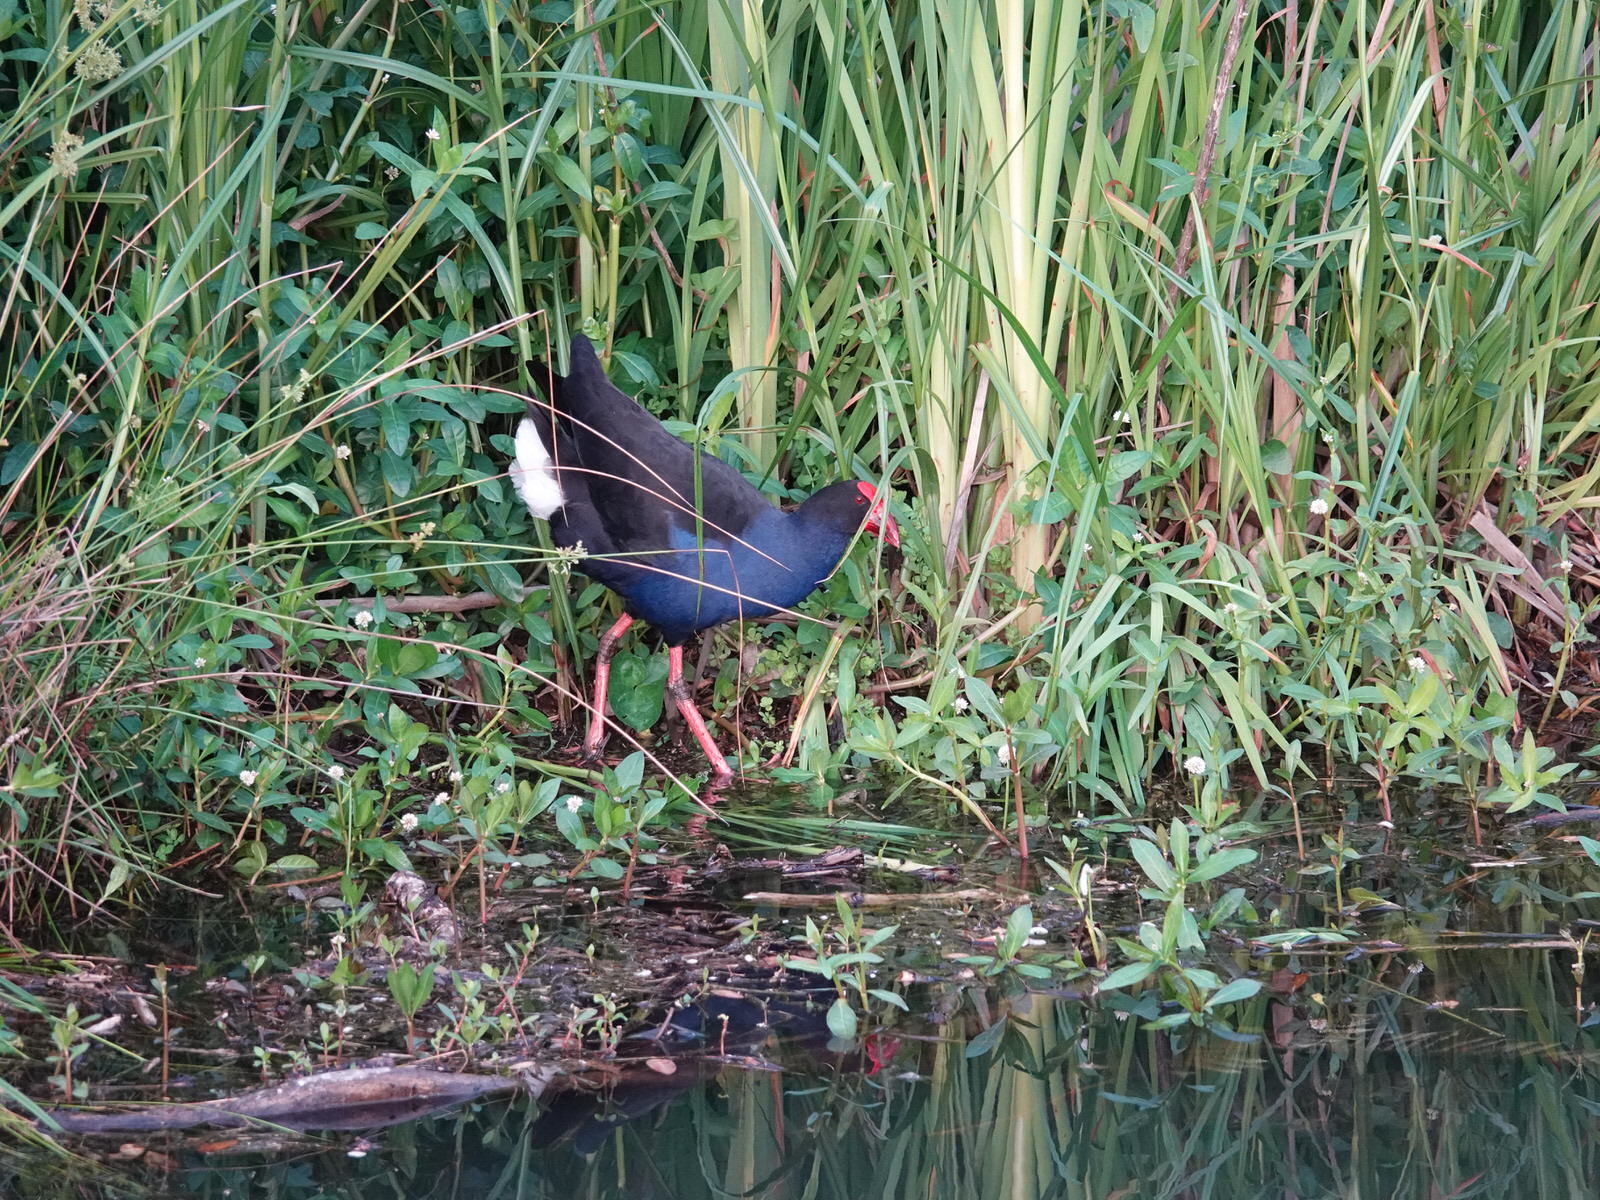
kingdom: Animalia
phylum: Chordata
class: Aves
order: Gruiformes
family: Rallidae
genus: Porphyrio
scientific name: Porphyrio melanotus
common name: Australasian swamphen
